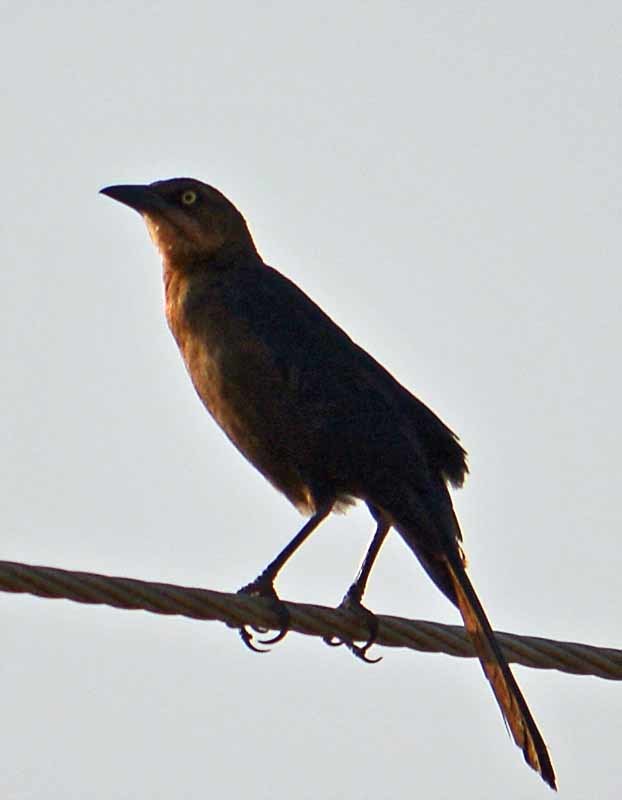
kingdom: Animalia
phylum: Chordata
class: Aves
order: Passeriformes
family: Icteridae
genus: Quiscalus
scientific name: Quiscalus mexicanus
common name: Great-tailed grackle
